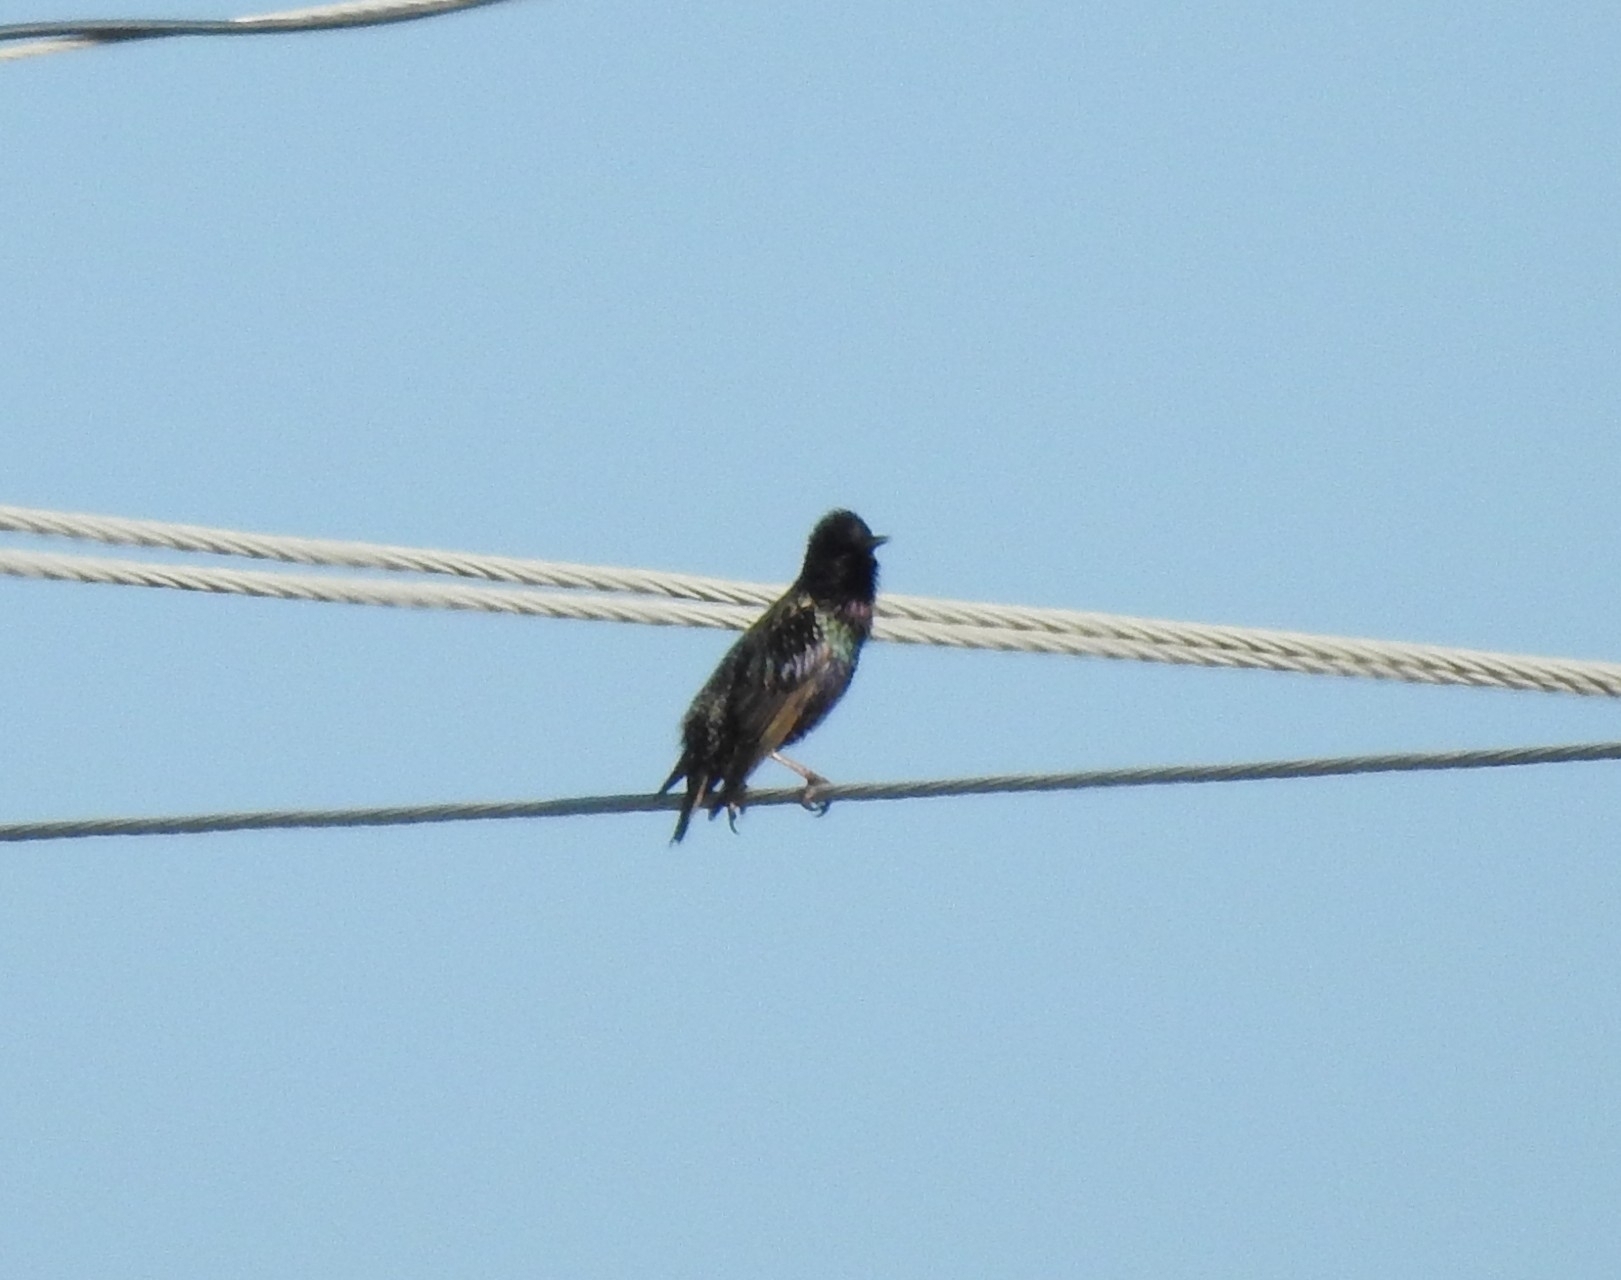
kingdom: Animalia
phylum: Chordata
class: Aves
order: Passeriformes
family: Sturnidae
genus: Sturnus
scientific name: Sturnus vulgaris
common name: Common starling
